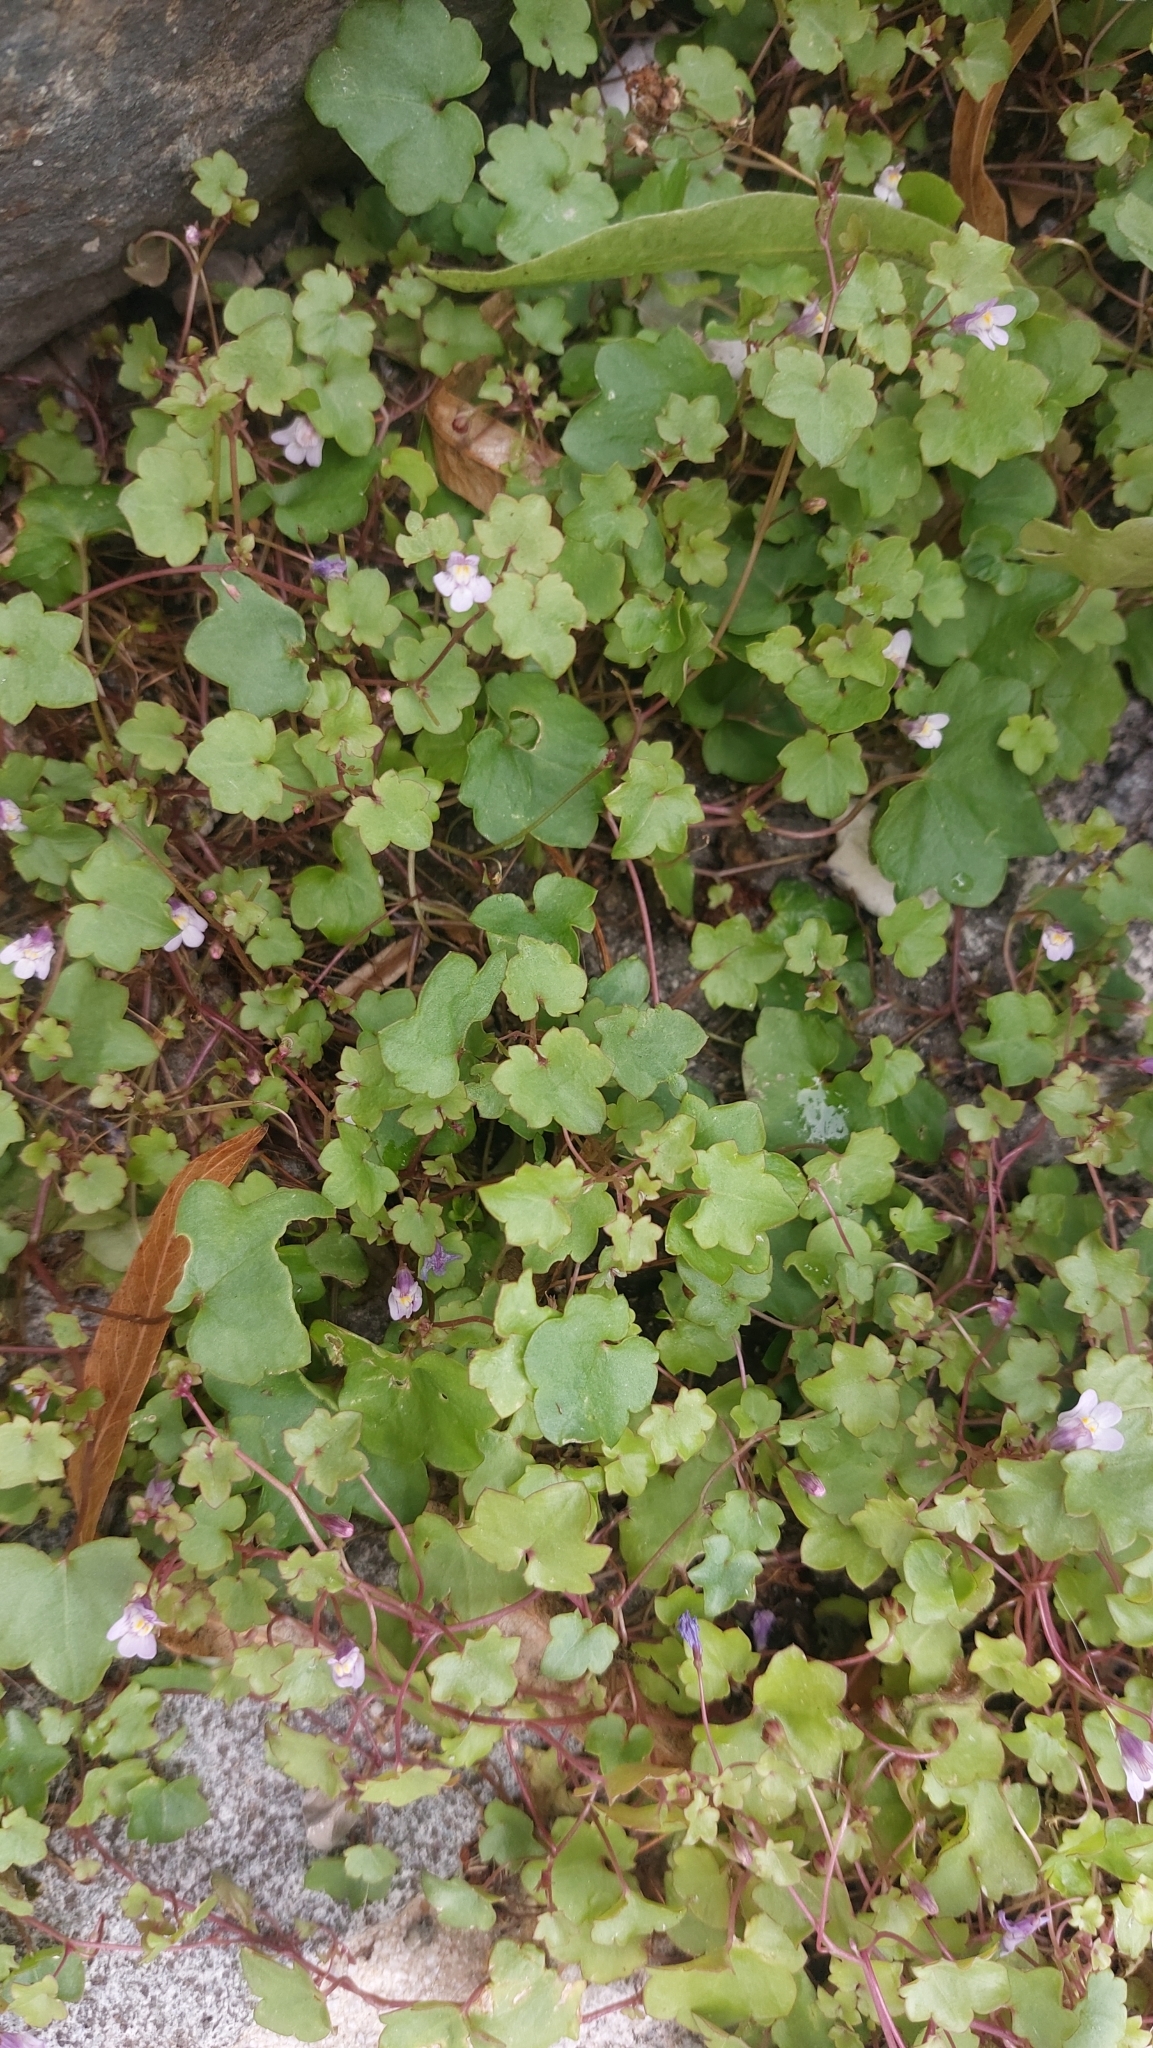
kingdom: Plantae
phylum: Tracheophyta
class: Magnoliopsida
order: Lamiales
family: Plantaginaceae
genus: Cymbalaria
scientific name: Cymbalaria muralis
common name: Ivy-leaved toadflax
